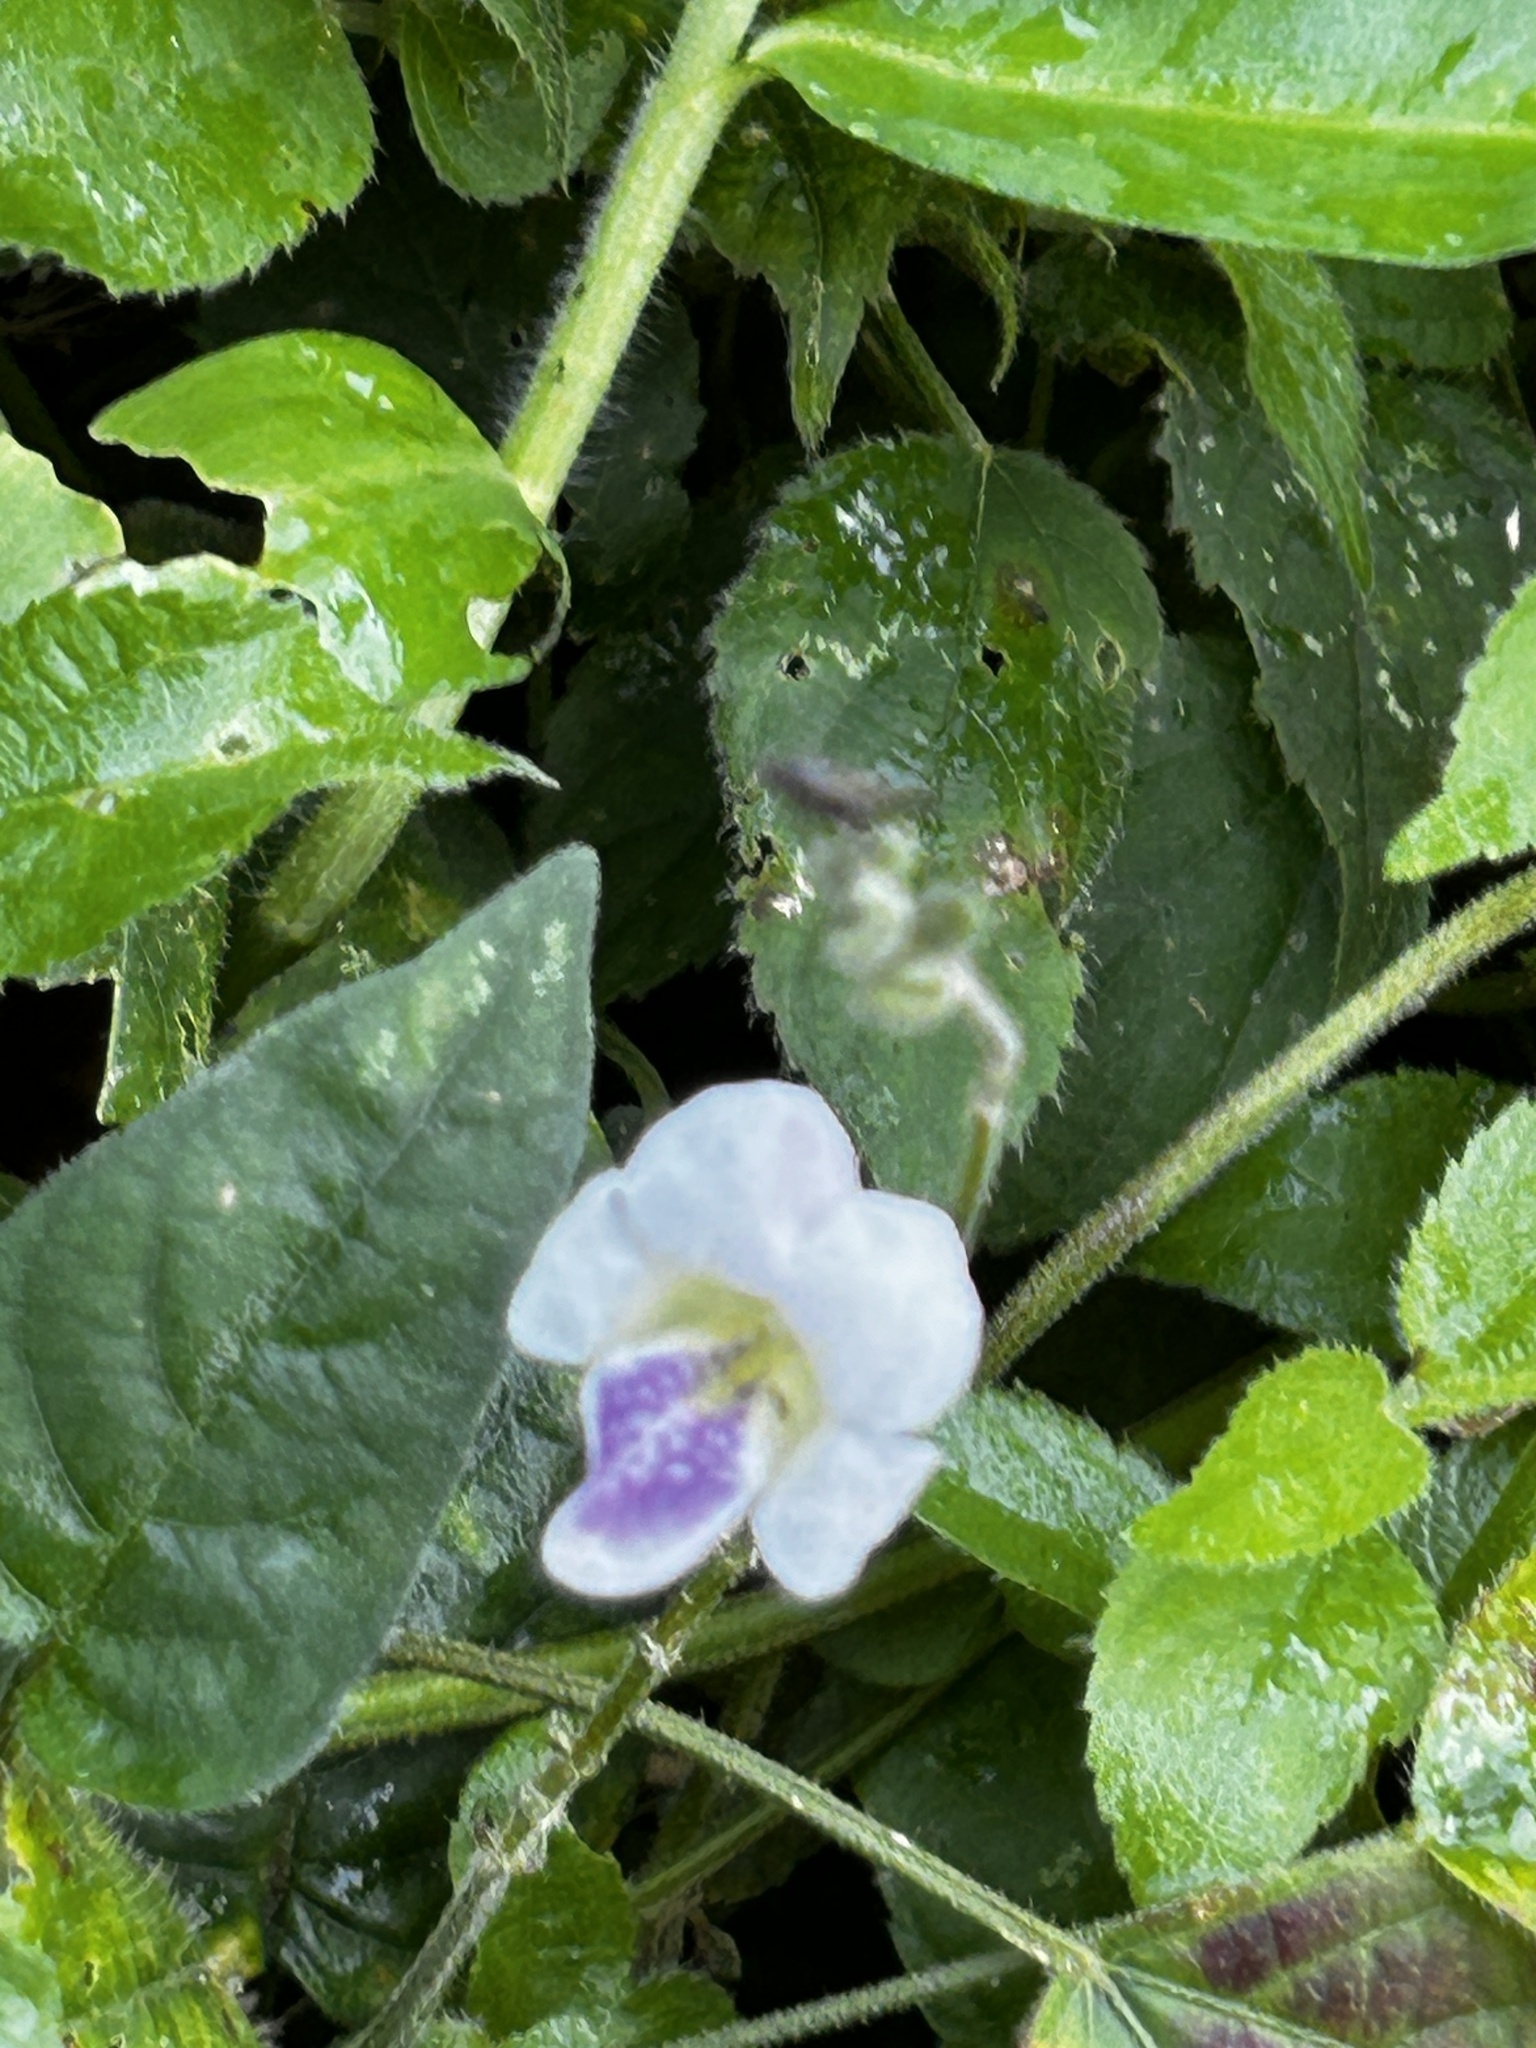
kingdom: Plantae
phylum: Tracheophyta
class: Magnoliopsida
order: Lamiales
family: Acanthaceae
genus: Asystasia
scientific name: Asystasia intrusa
